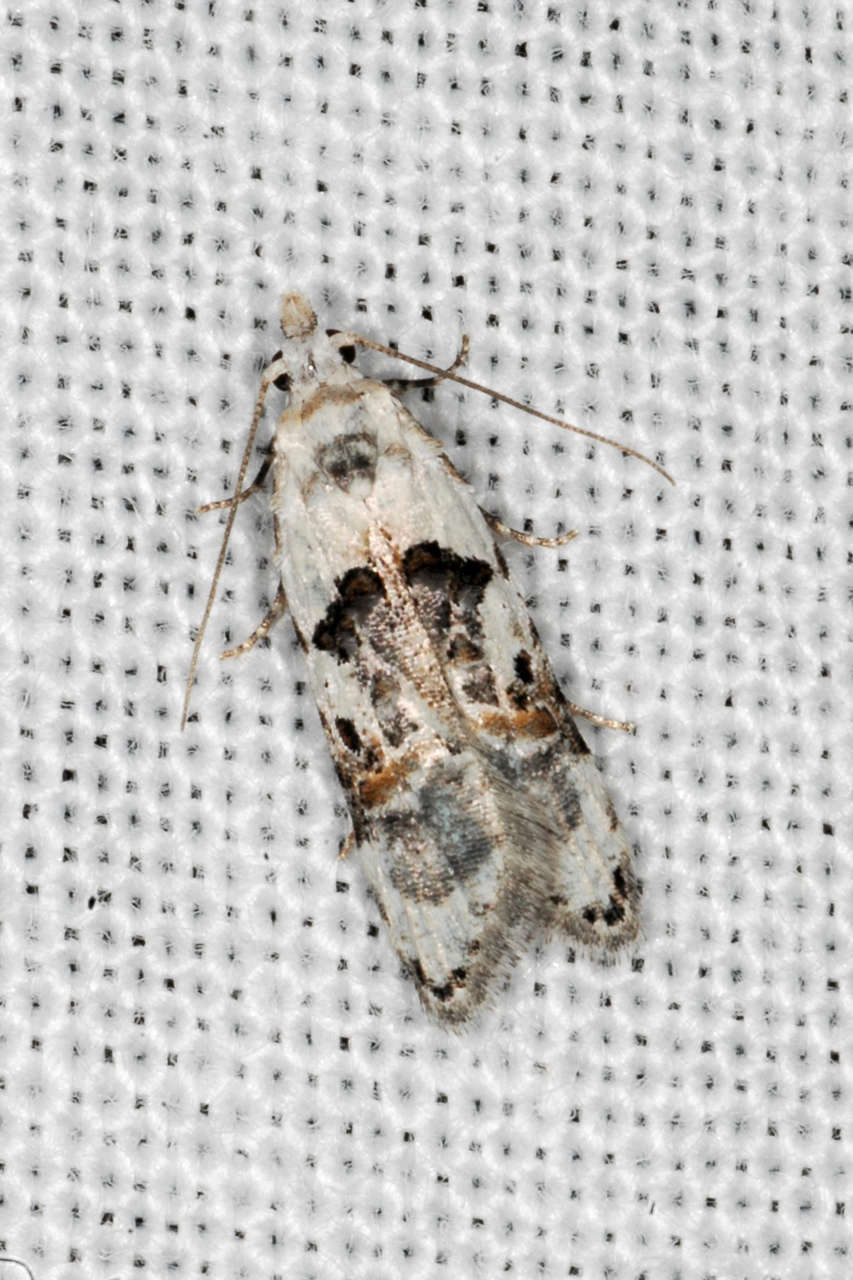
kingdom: Animalia
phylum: Arthropoda
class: Insecta
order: Lepidoptera
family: Carposinidae
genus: Sosineura
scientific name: Sosineura mimica
